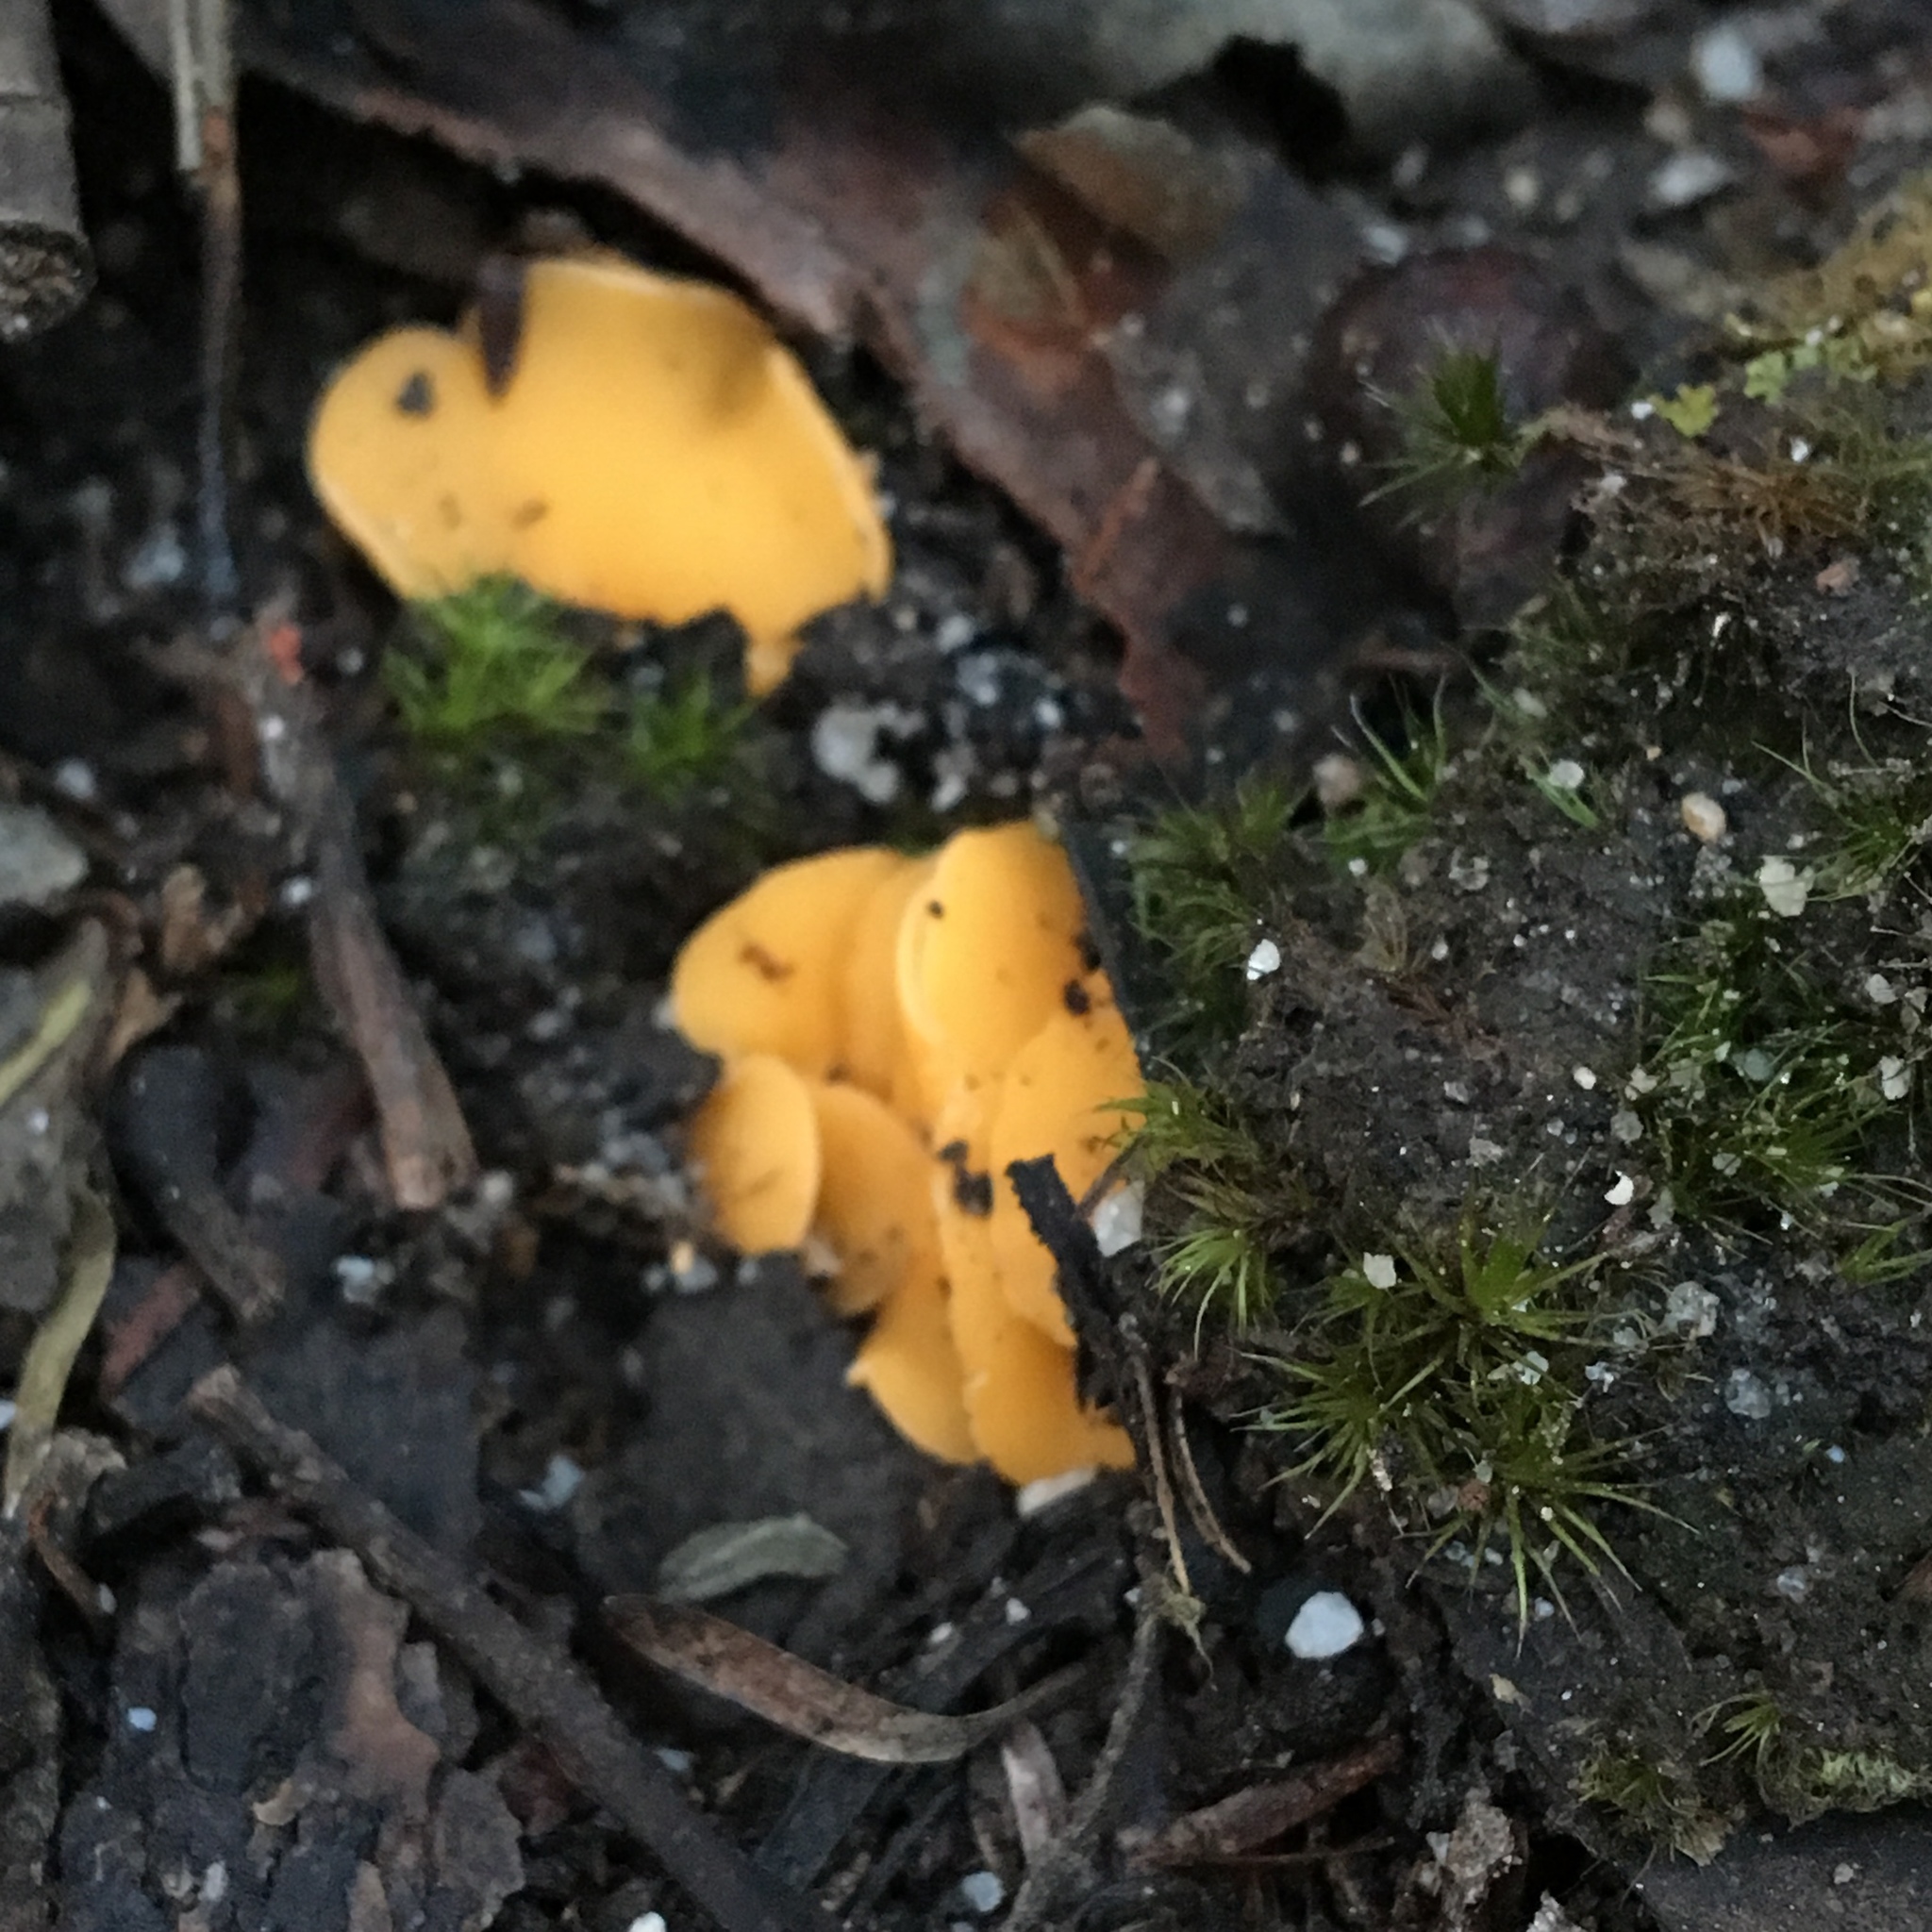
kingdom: Fungi
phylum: Ascomycota
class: Leotiomycetes
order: Helotiales
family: Helotiaceae
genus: Phaeohelotium
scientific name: Phaeohelotium baileyanum
